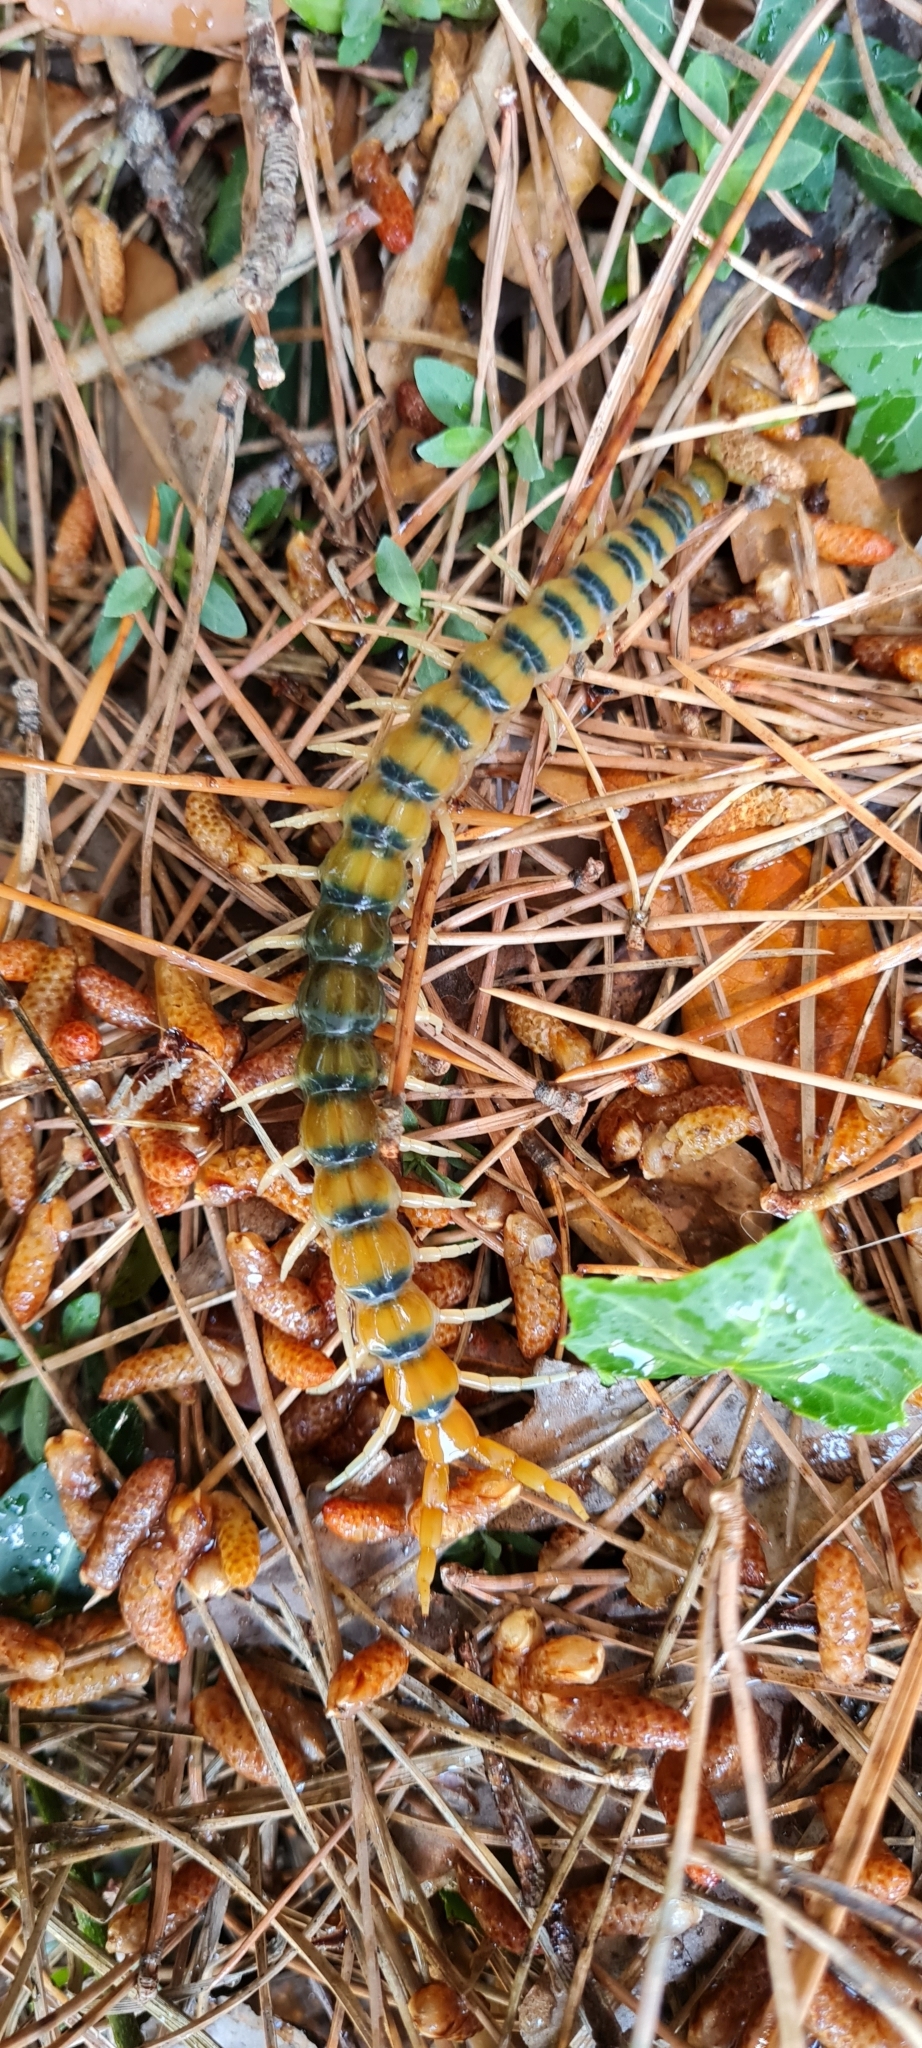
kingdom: Animalia
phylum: Arthropoda
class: Chilopoda
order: Scolopendromorpha
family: Scolopendridae
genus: Scolopendra
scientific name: Scolopendra cingulata
